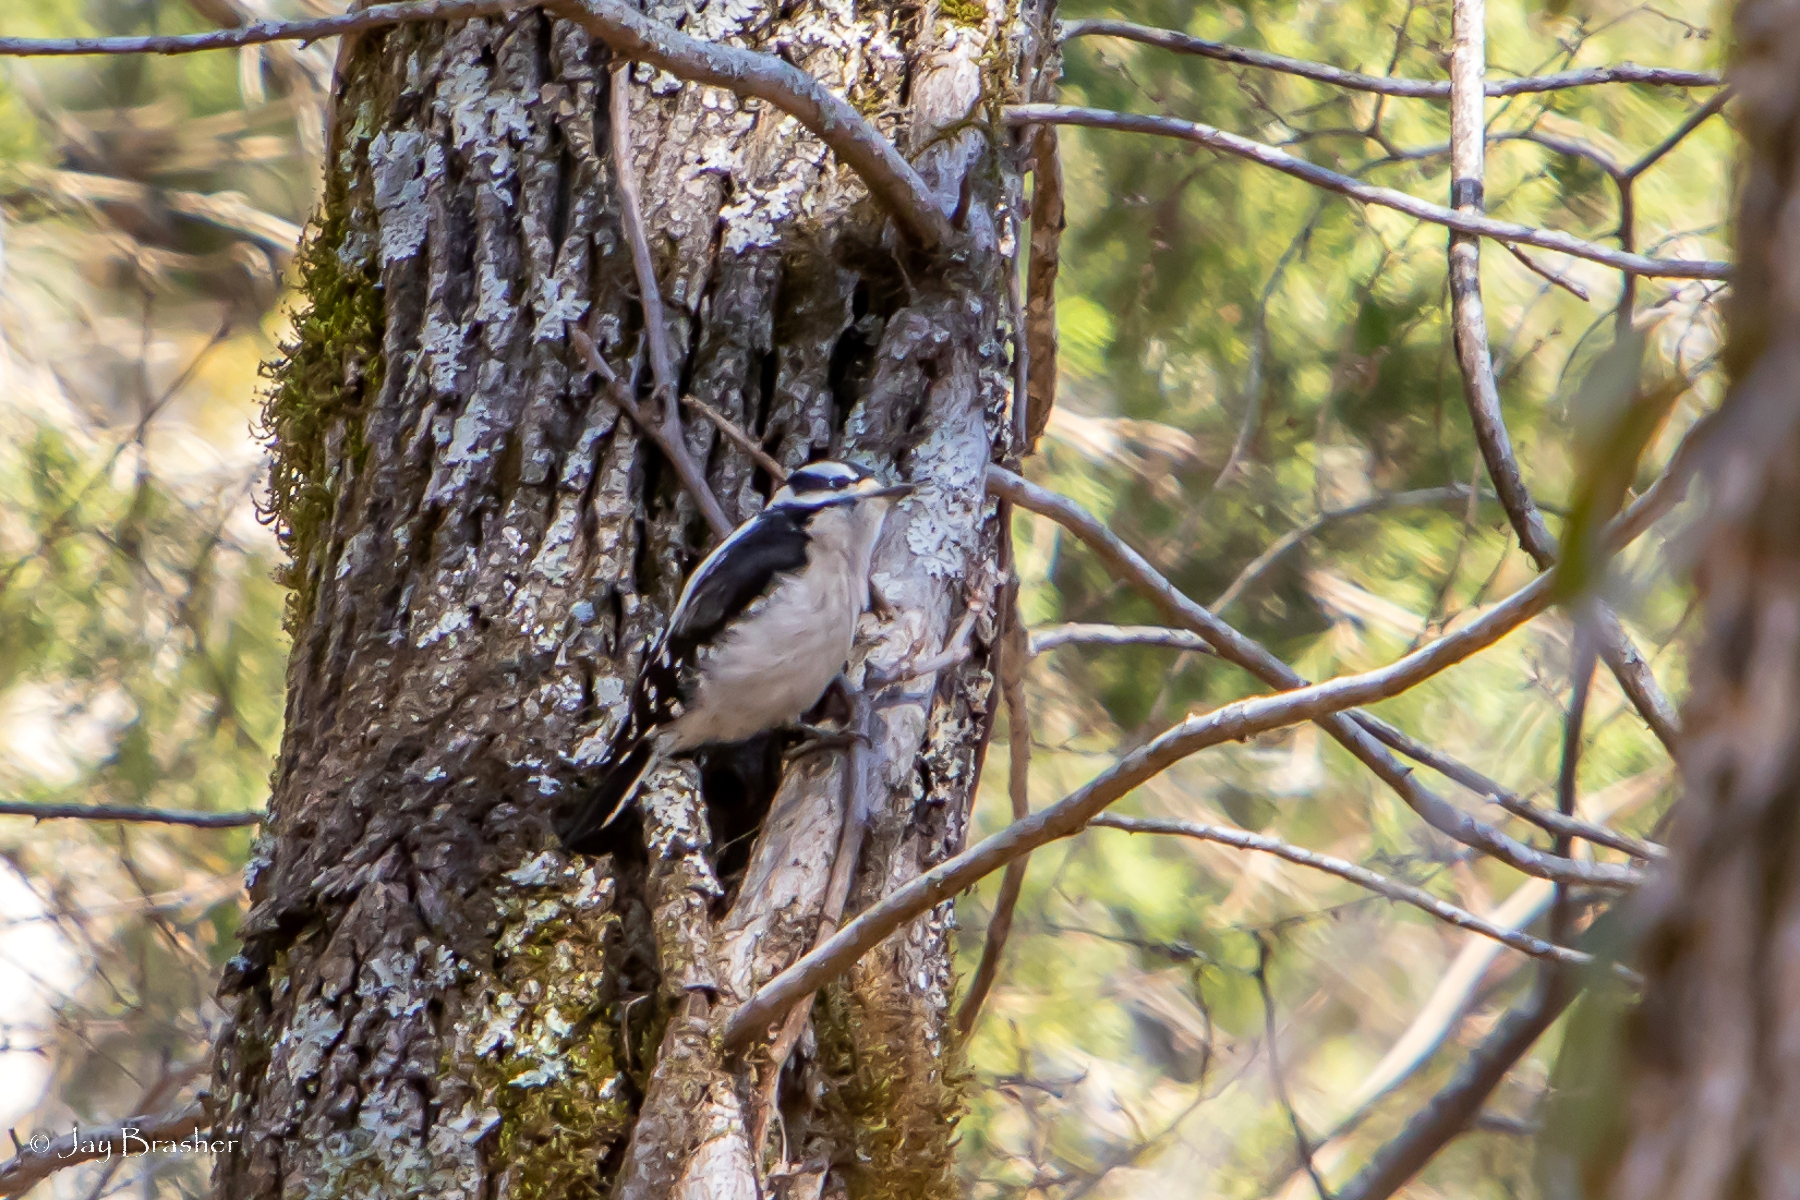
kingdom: Animalia
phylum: Chordata
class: Aves
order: Piciformes
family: Picidae
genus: Dryobates
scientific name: Dryobates pubescens
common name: Downy woodpecker
